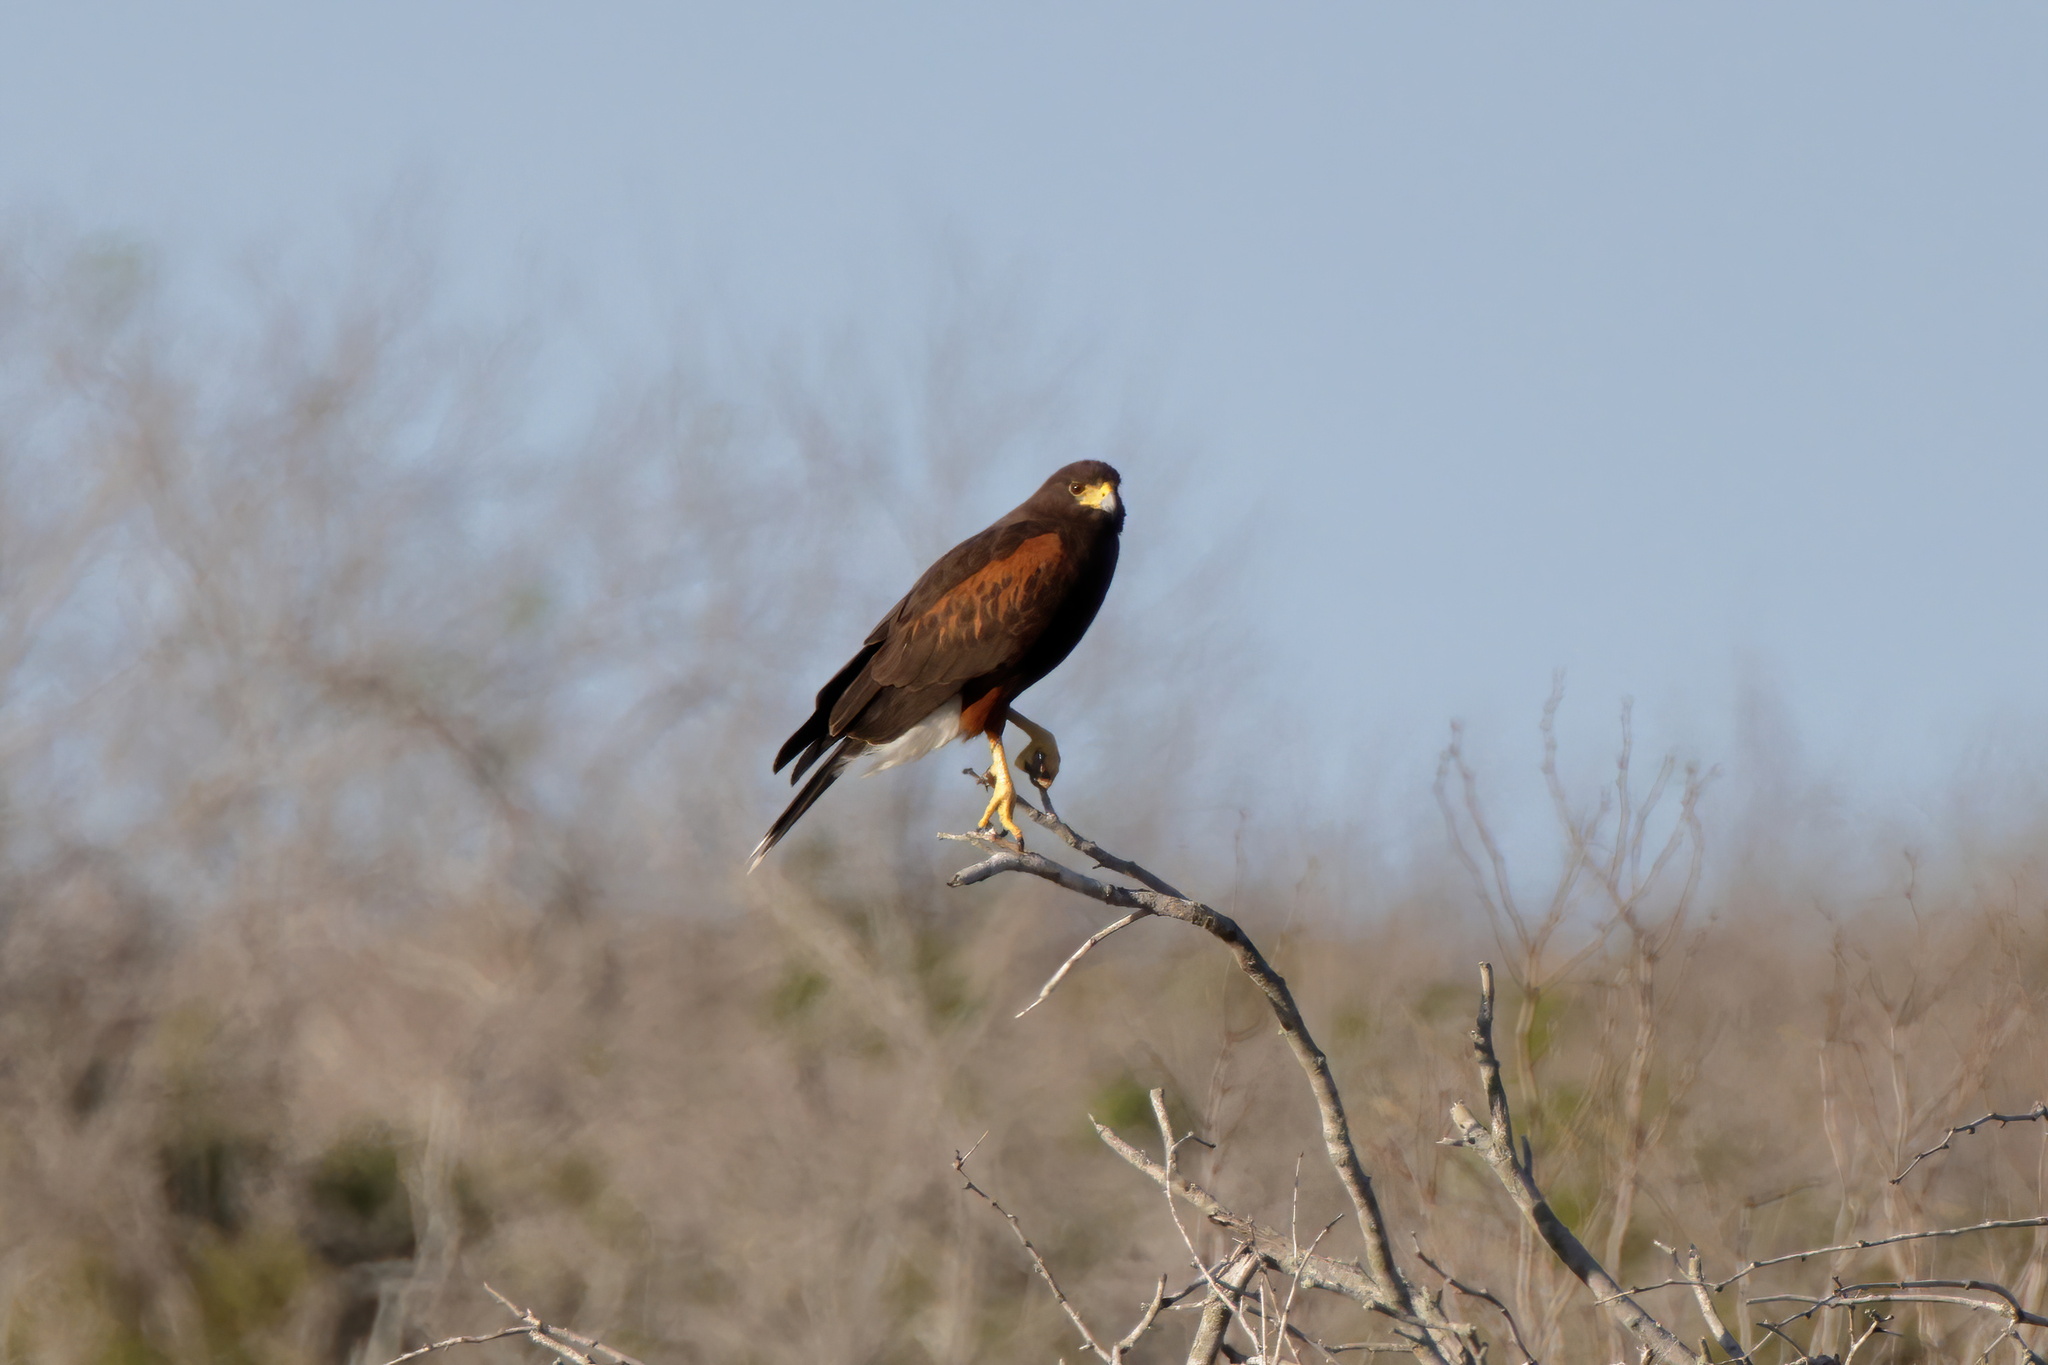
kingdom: Animalia
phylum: Chordata
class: Aves
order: Accipitriformes
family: Accipitridae
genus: Parabuteo
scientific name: Parabuteo unicinctus
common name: Harris's hawk
